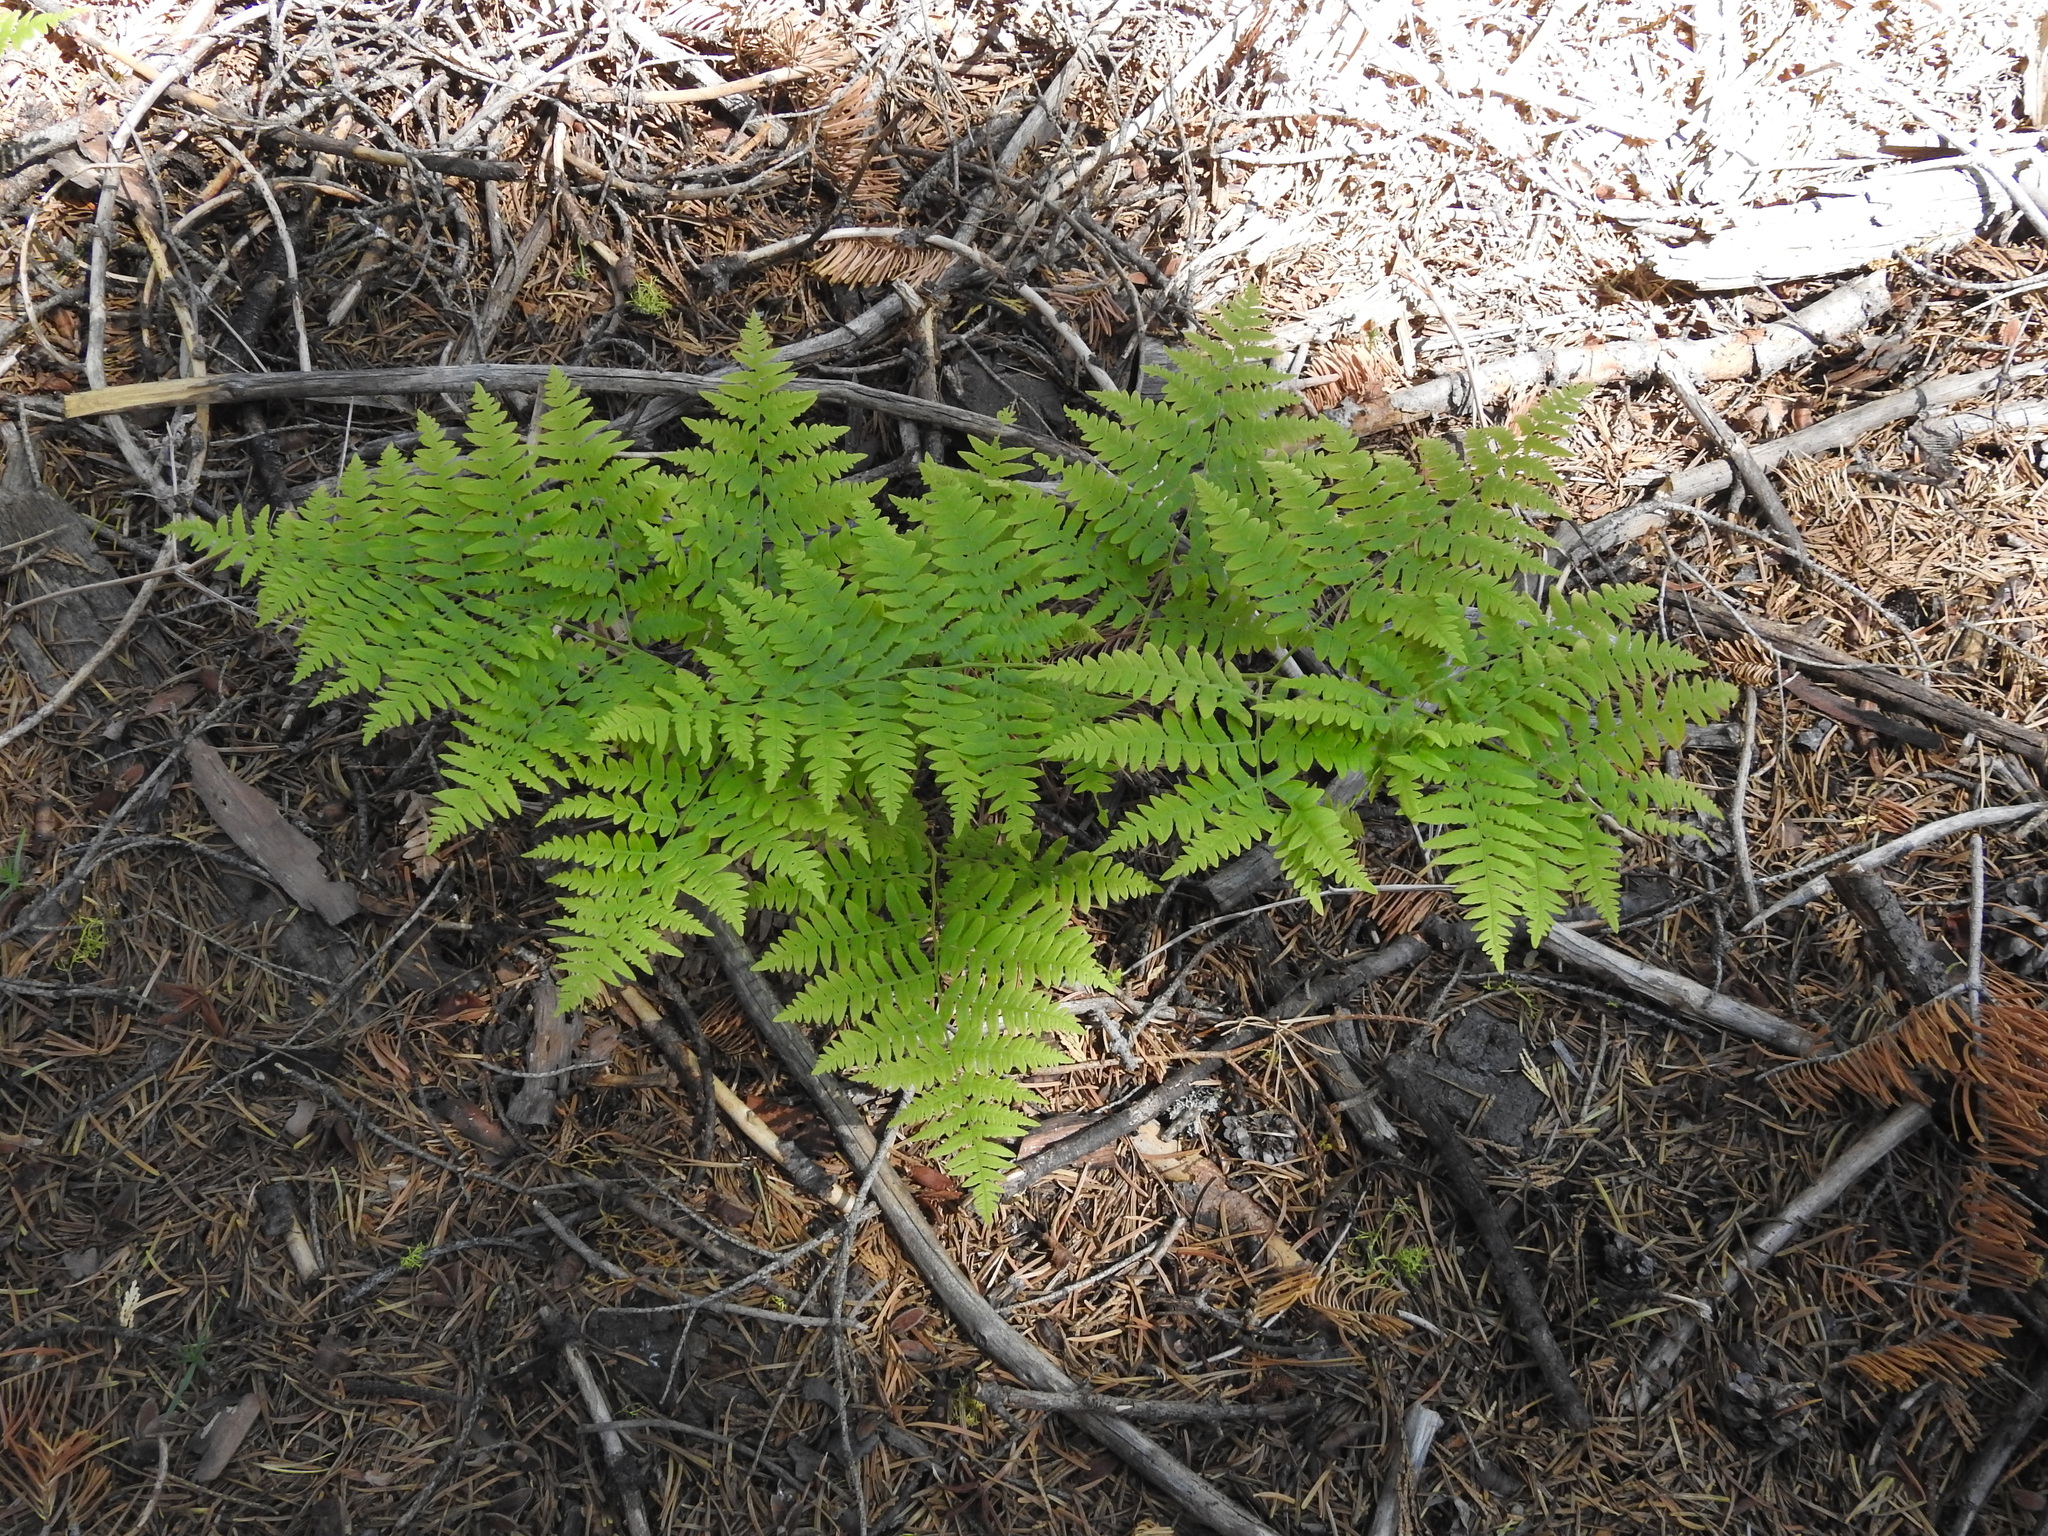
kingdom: Plantae
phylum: Tracheophyta
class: Polypodiopsida
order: Polypodiales
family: Dennstaedtiaceae
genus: Pteridium
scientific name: Pteridium aquilinum
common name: Bracken
